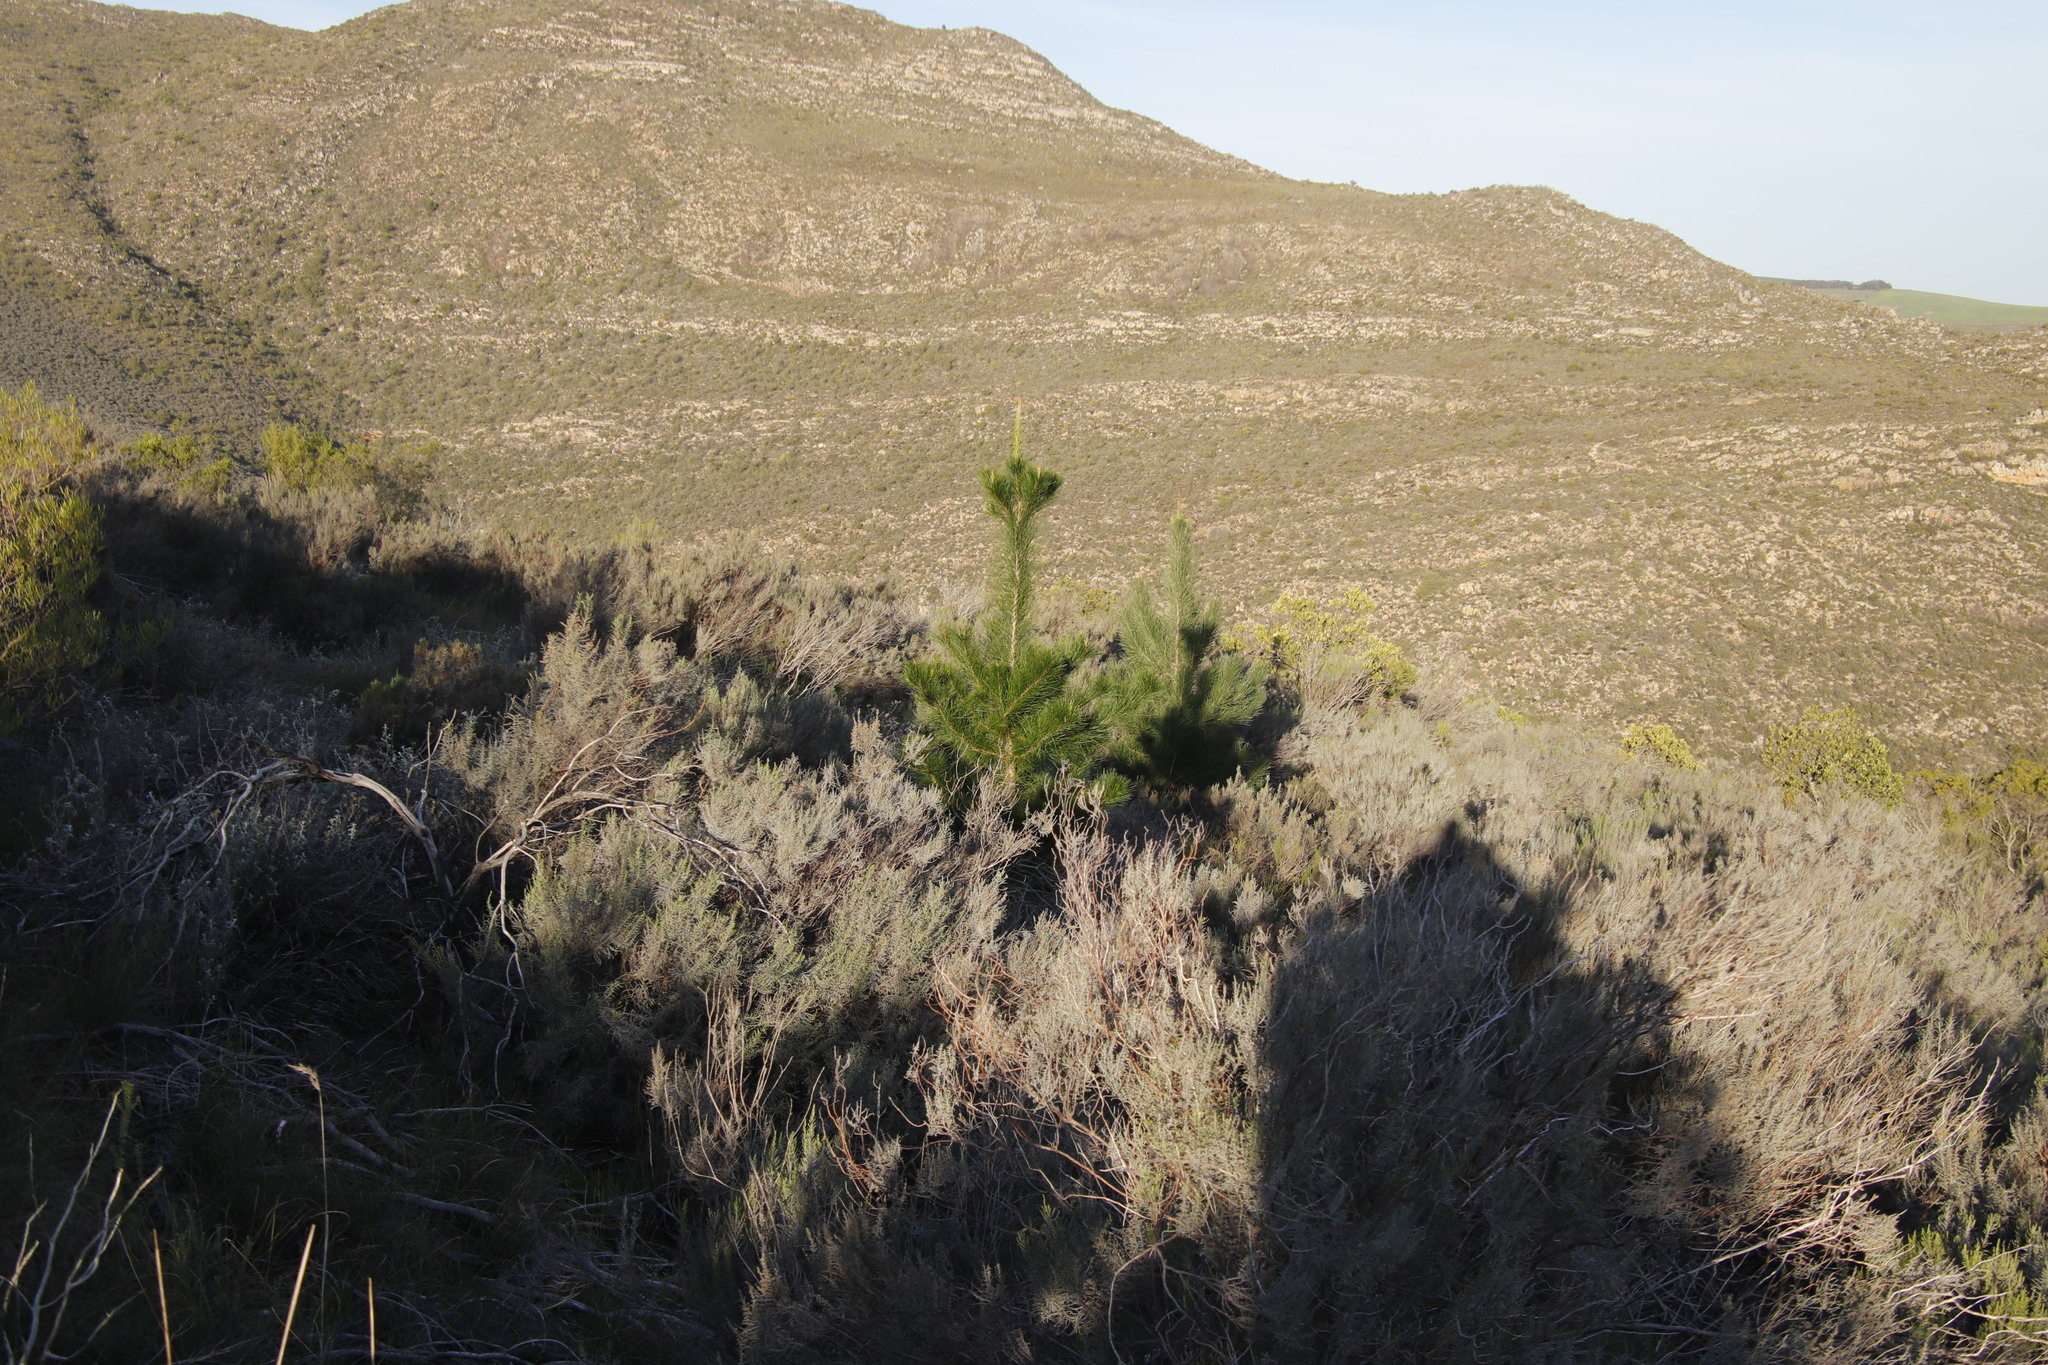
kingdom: Plantae
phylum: Tracheophyta
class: Pinopsida
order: Pinales
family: Pinaceae
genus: Pinus
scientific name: Pinus radiata
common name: Monterey pine
